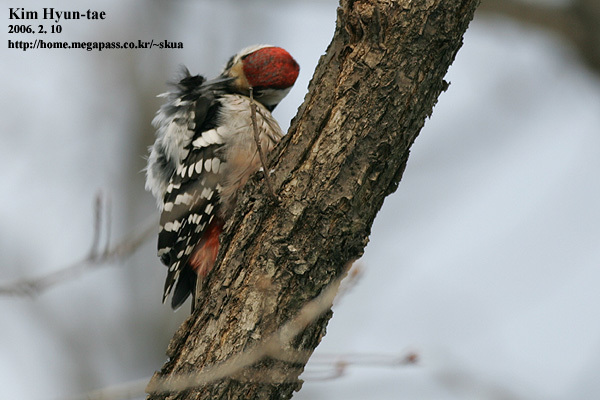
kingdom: Animalia
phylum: Chordata
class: Aves
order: Piciformes
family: Picidae
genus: Dendrocopos
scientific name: Dendrocopos leucotos
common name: White-backed woodpecker
